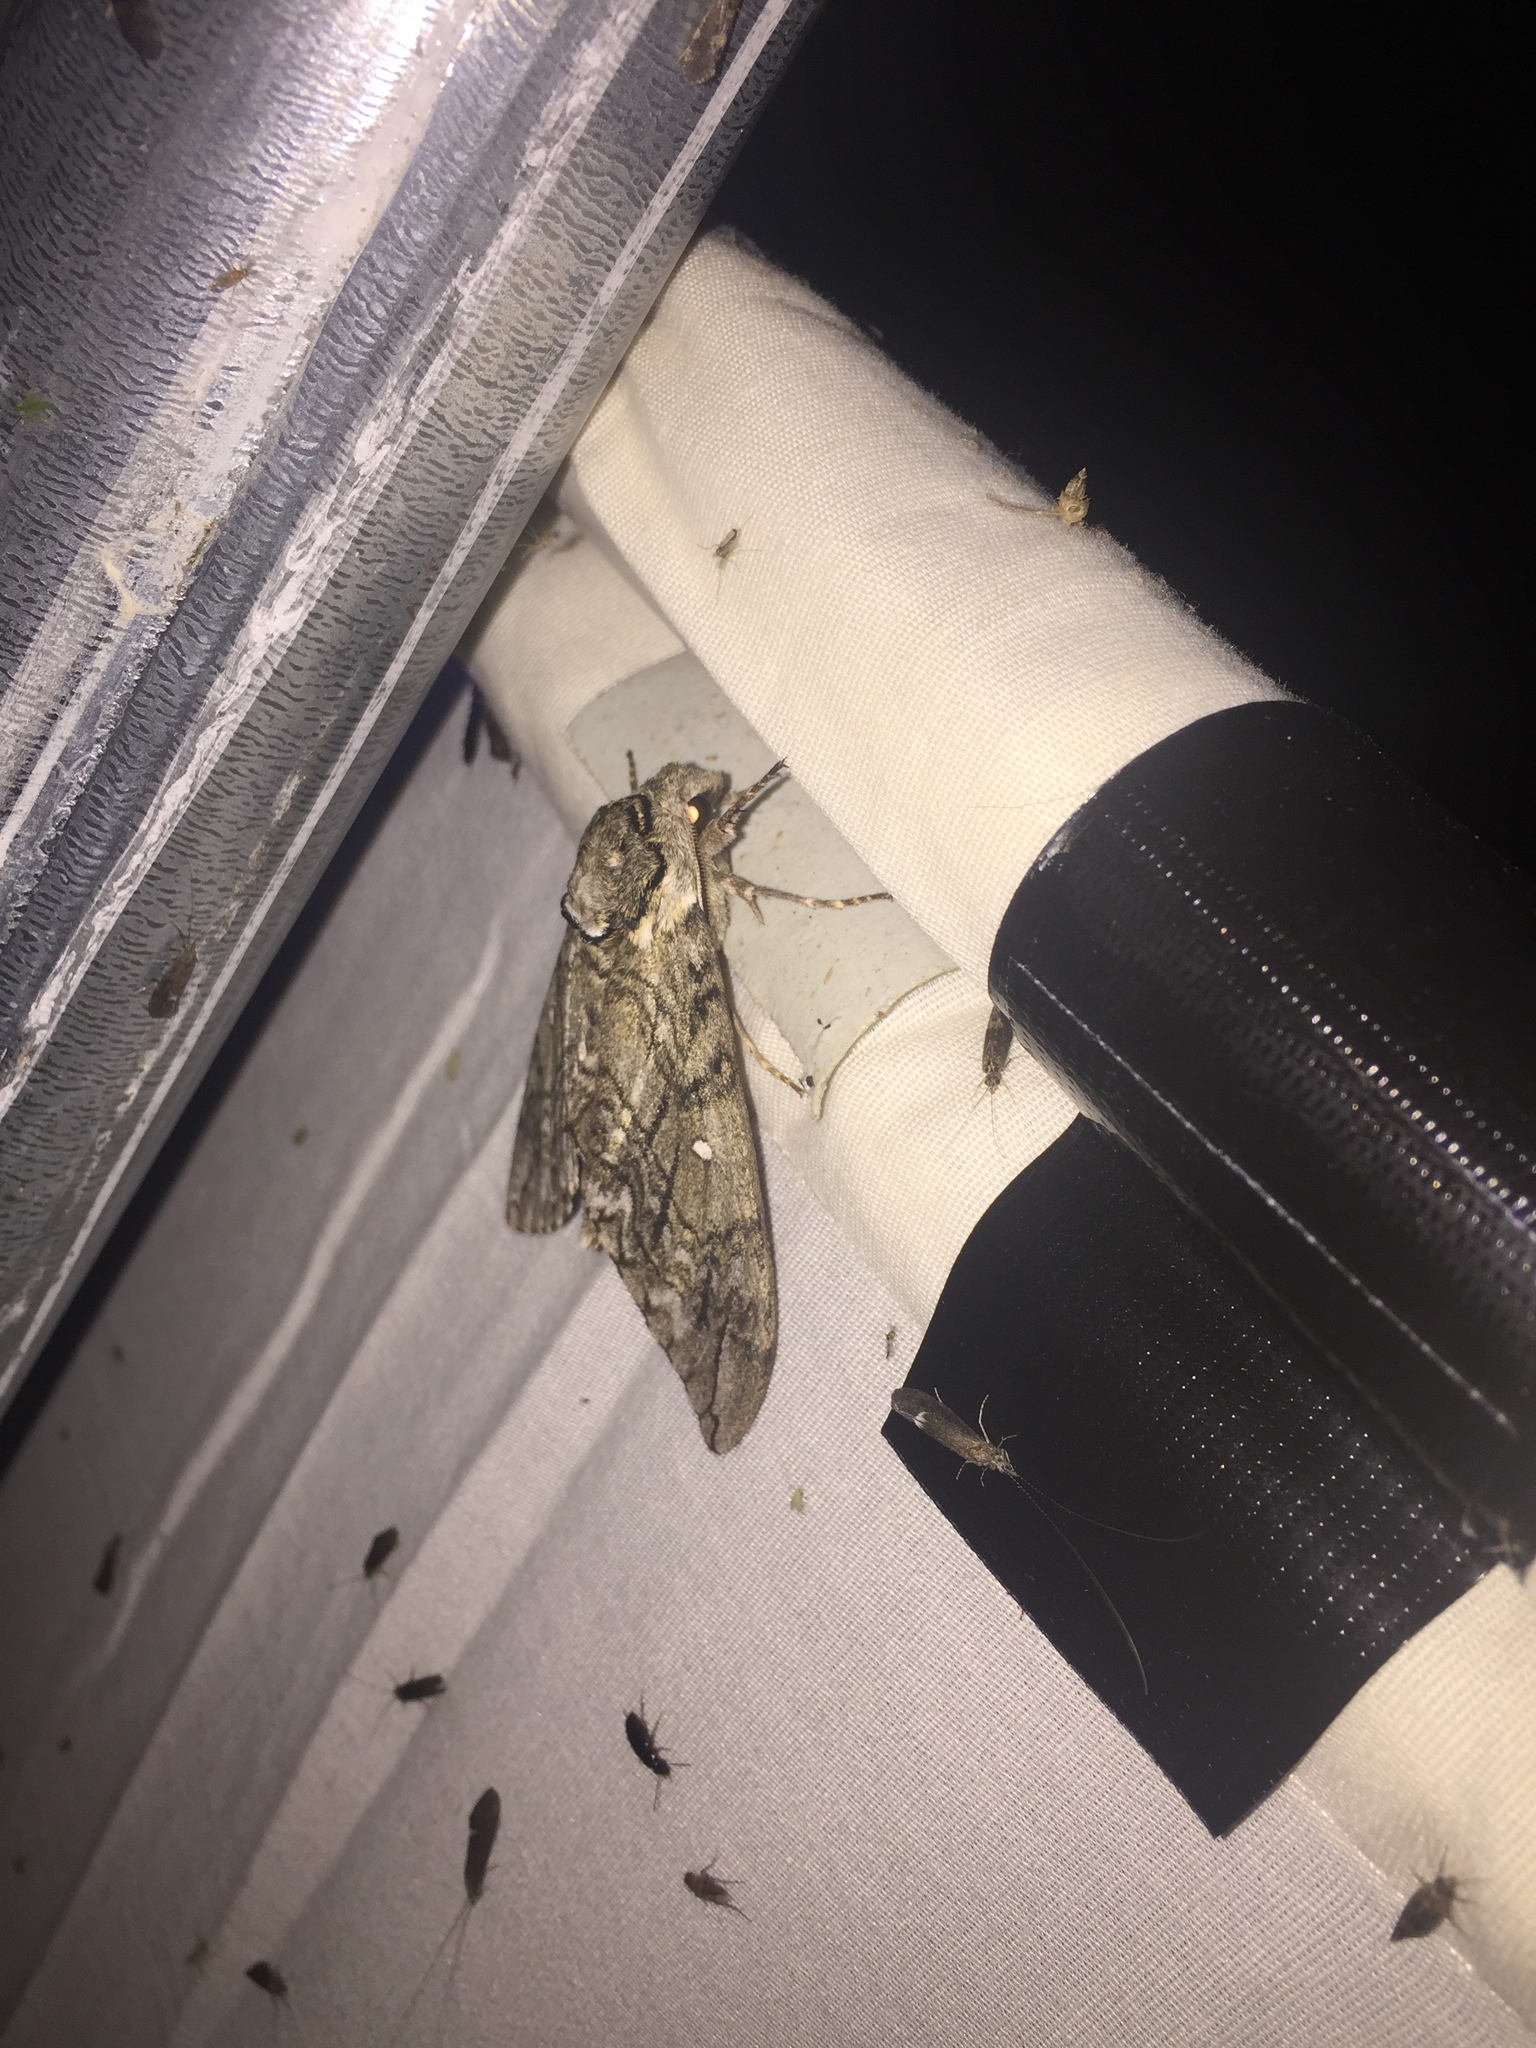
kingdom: Animalia
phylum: Arthropoda
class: Insecta
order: Lepidoptera
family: Sphingidae
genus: Ceratomia
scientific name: Ceratomia undulosa
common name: Waved sphinx
